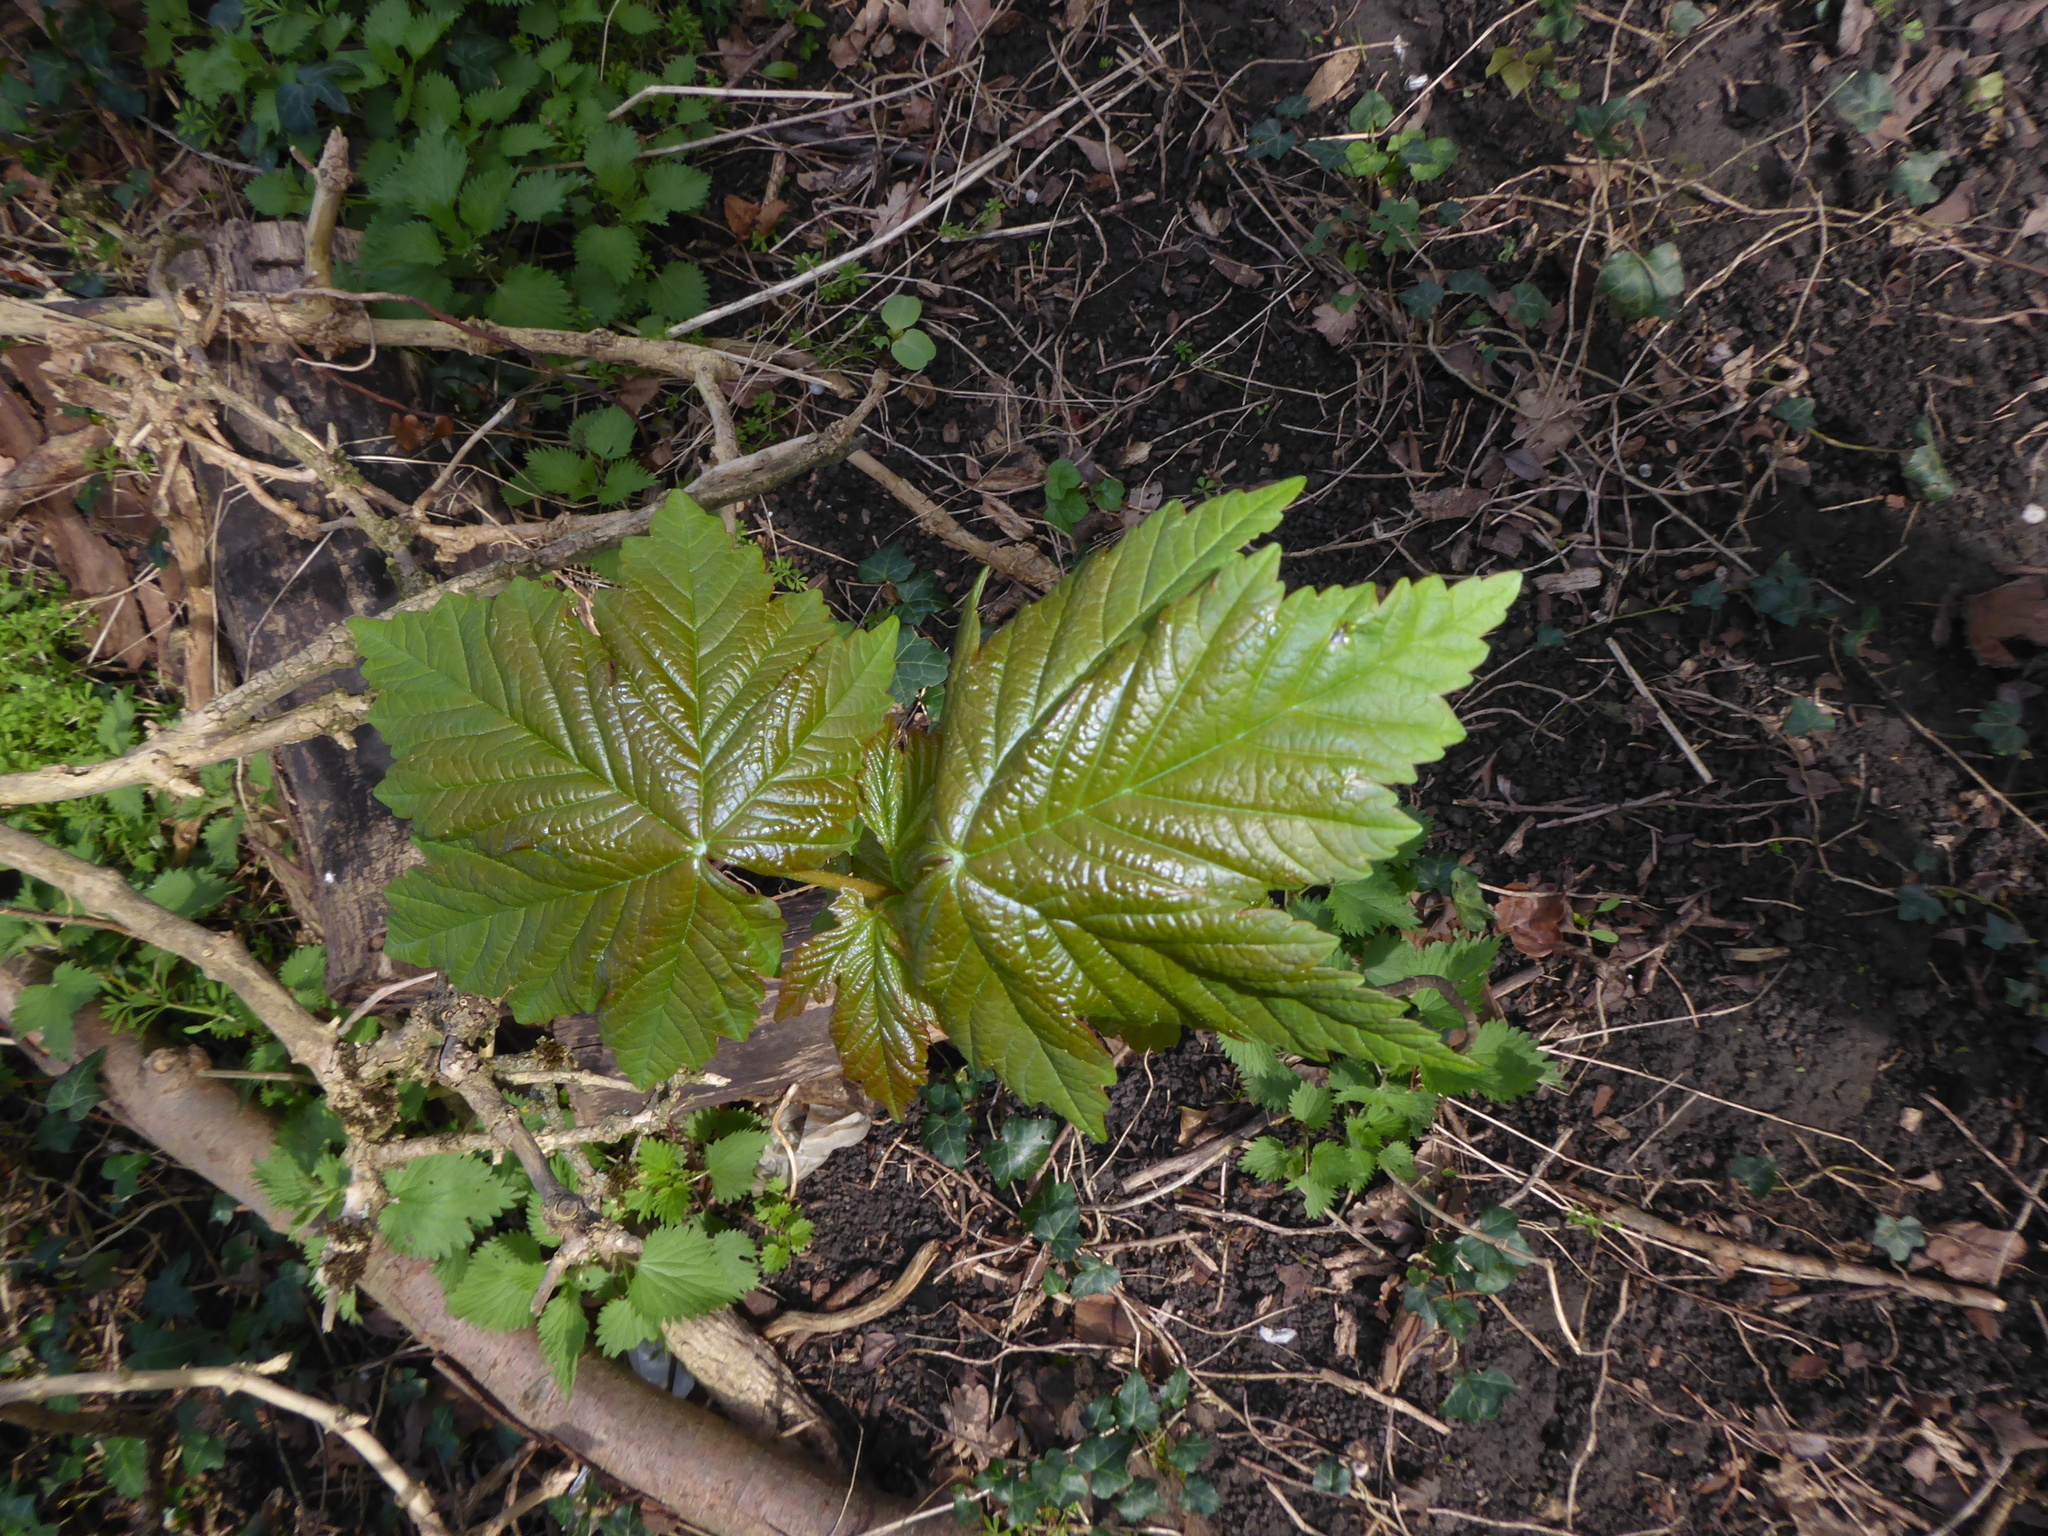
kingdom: Plantae
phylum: Tracheophyta
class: Magnoliopsida
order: Sapindales
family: Sapindaceae
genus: Acer
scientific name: Acer pseudoplatanus
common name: Sycamore
